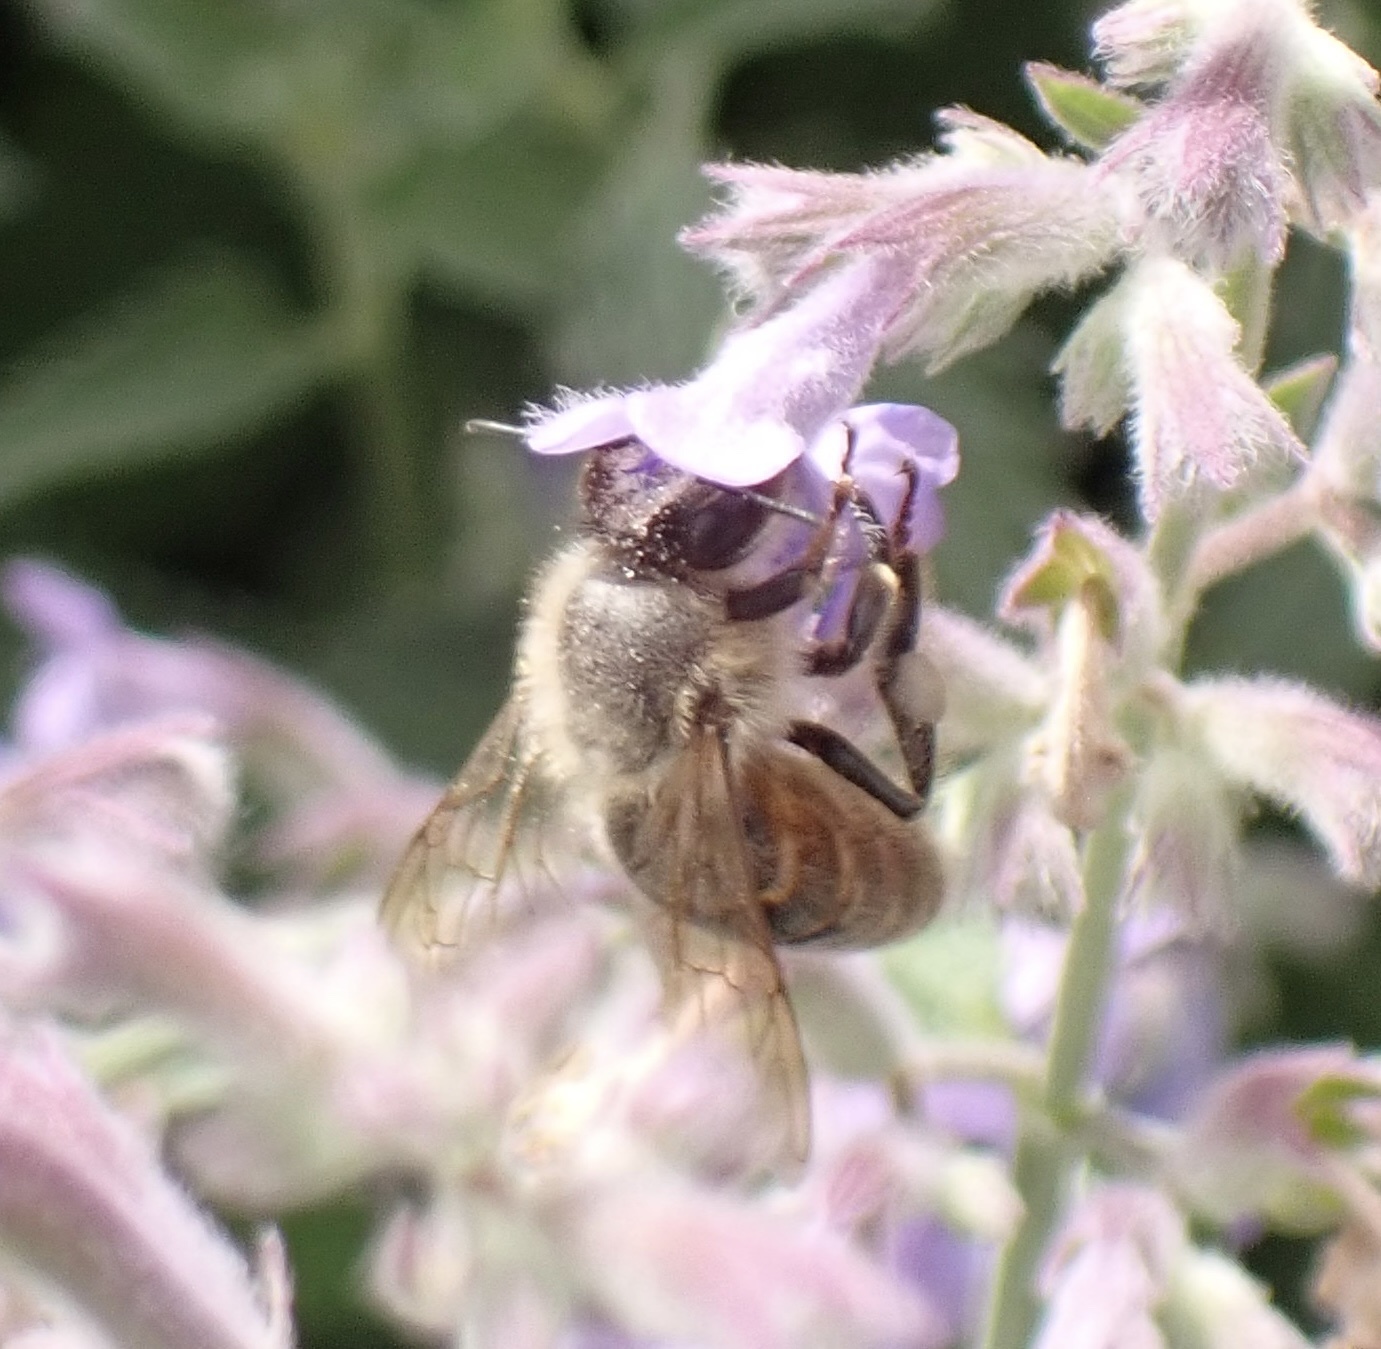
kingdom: Animalia
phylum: Arthropoda
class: Insecta
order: Hymenoptera
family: Apidae
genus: Apis
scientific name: Apis mellifera
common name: Honey bee
